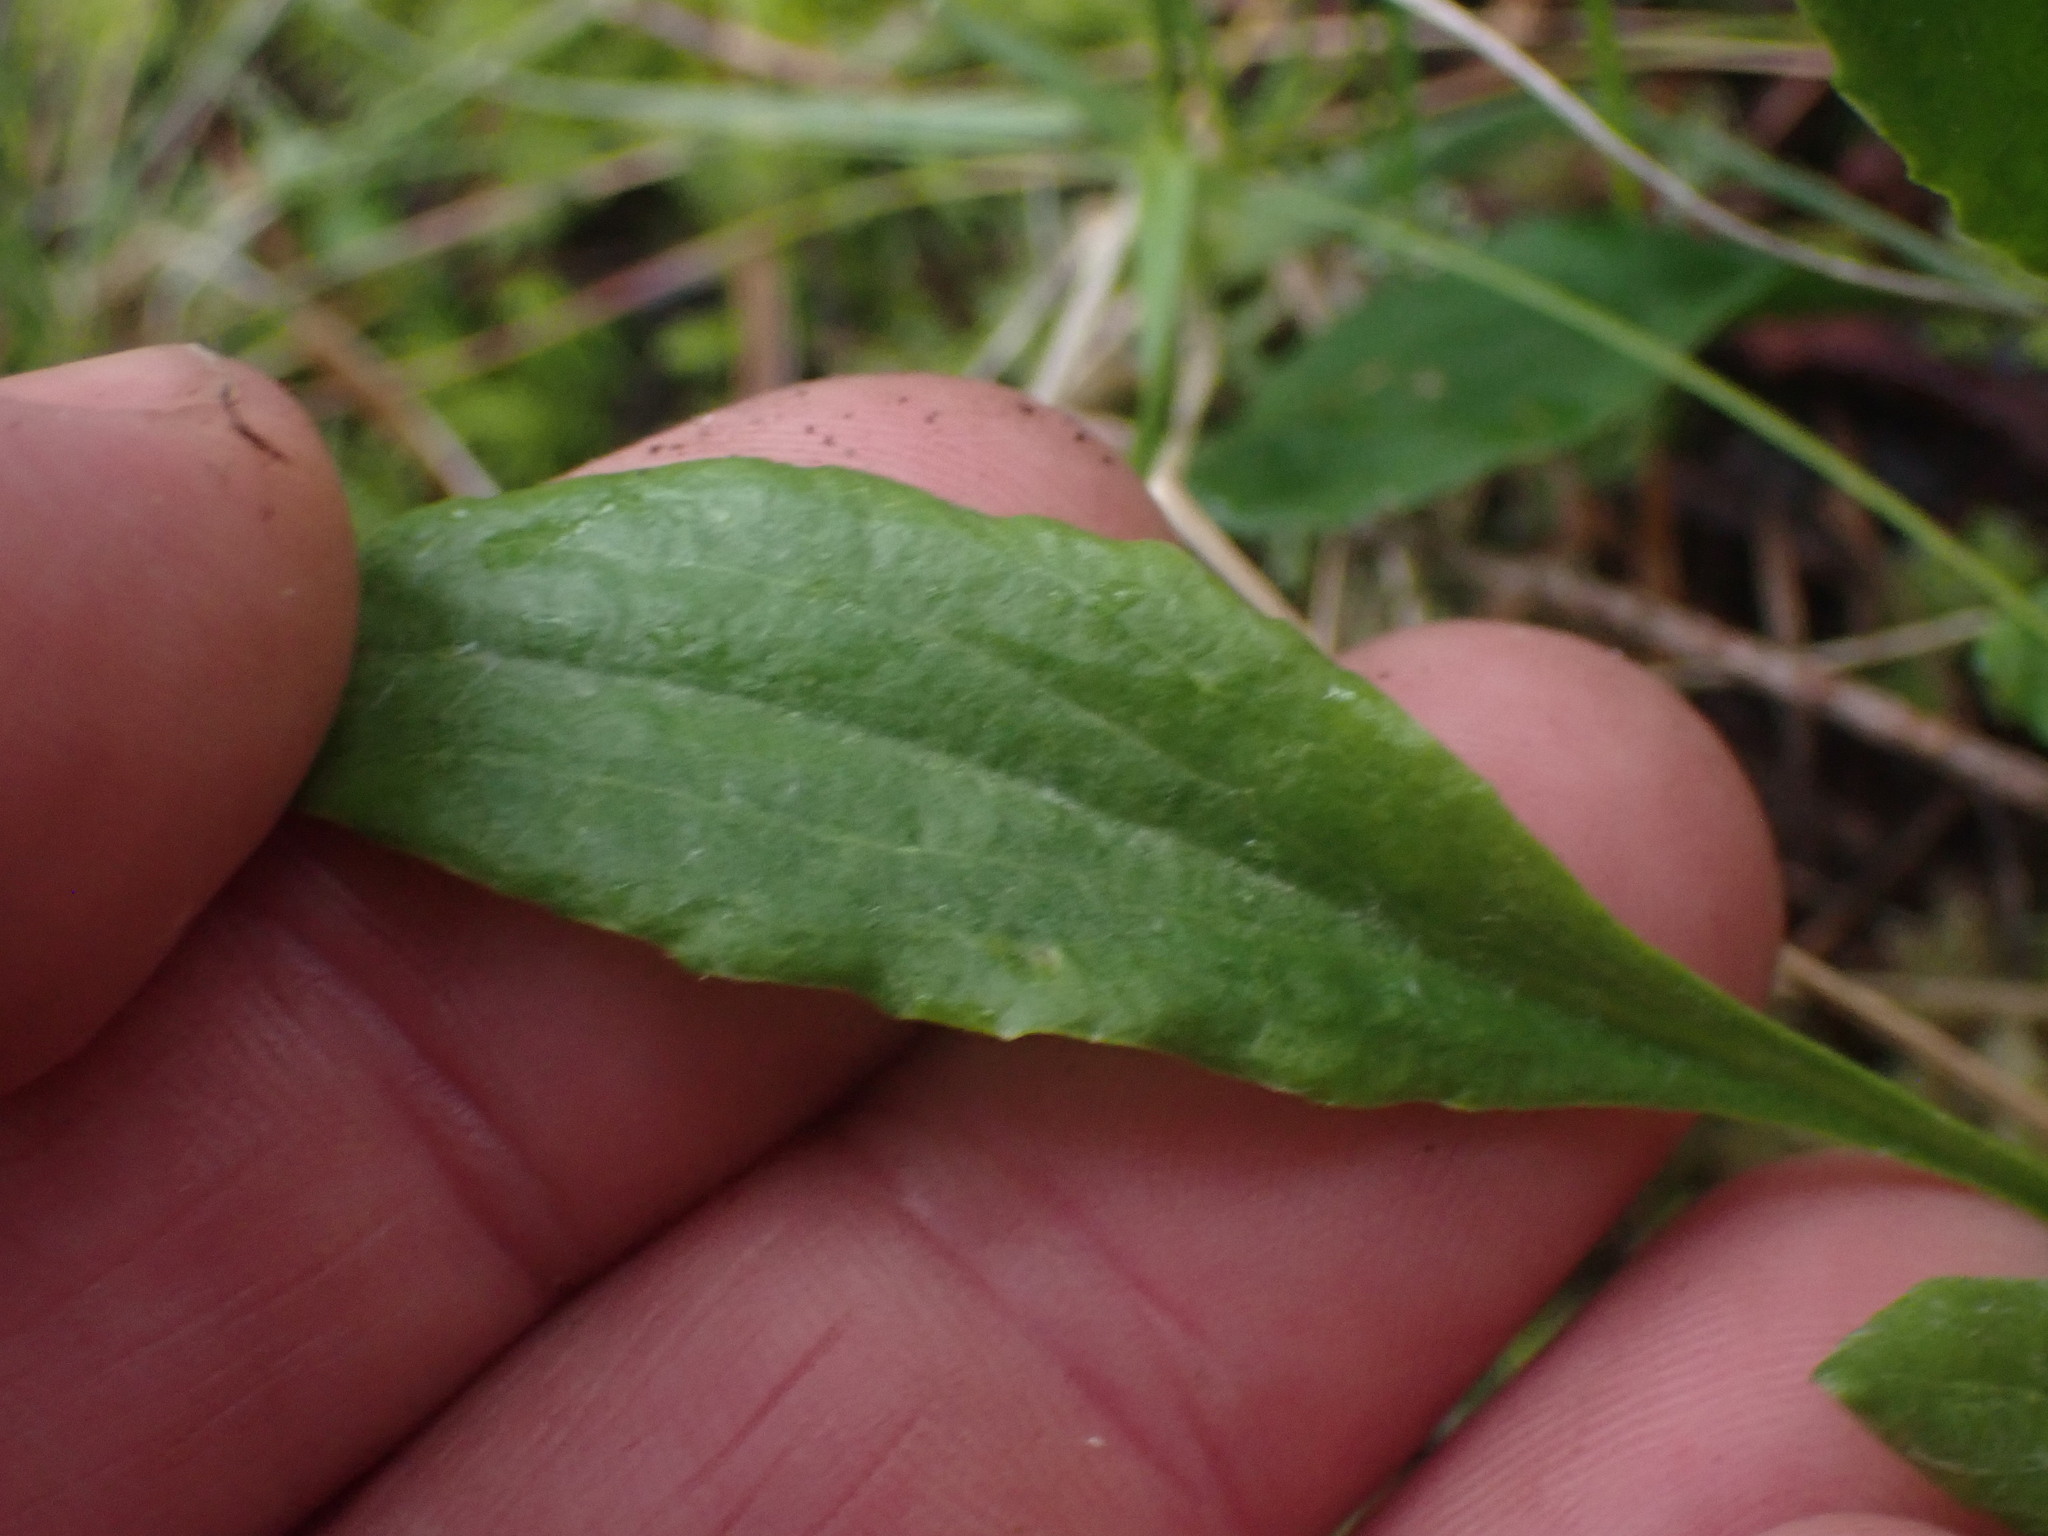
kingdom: Plantae
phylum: Tracheophyta
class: Magnoliopsida
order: Asterales
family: Asteraceae
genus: Packera
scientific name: Packera macounii
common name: Macoun's groundsel
